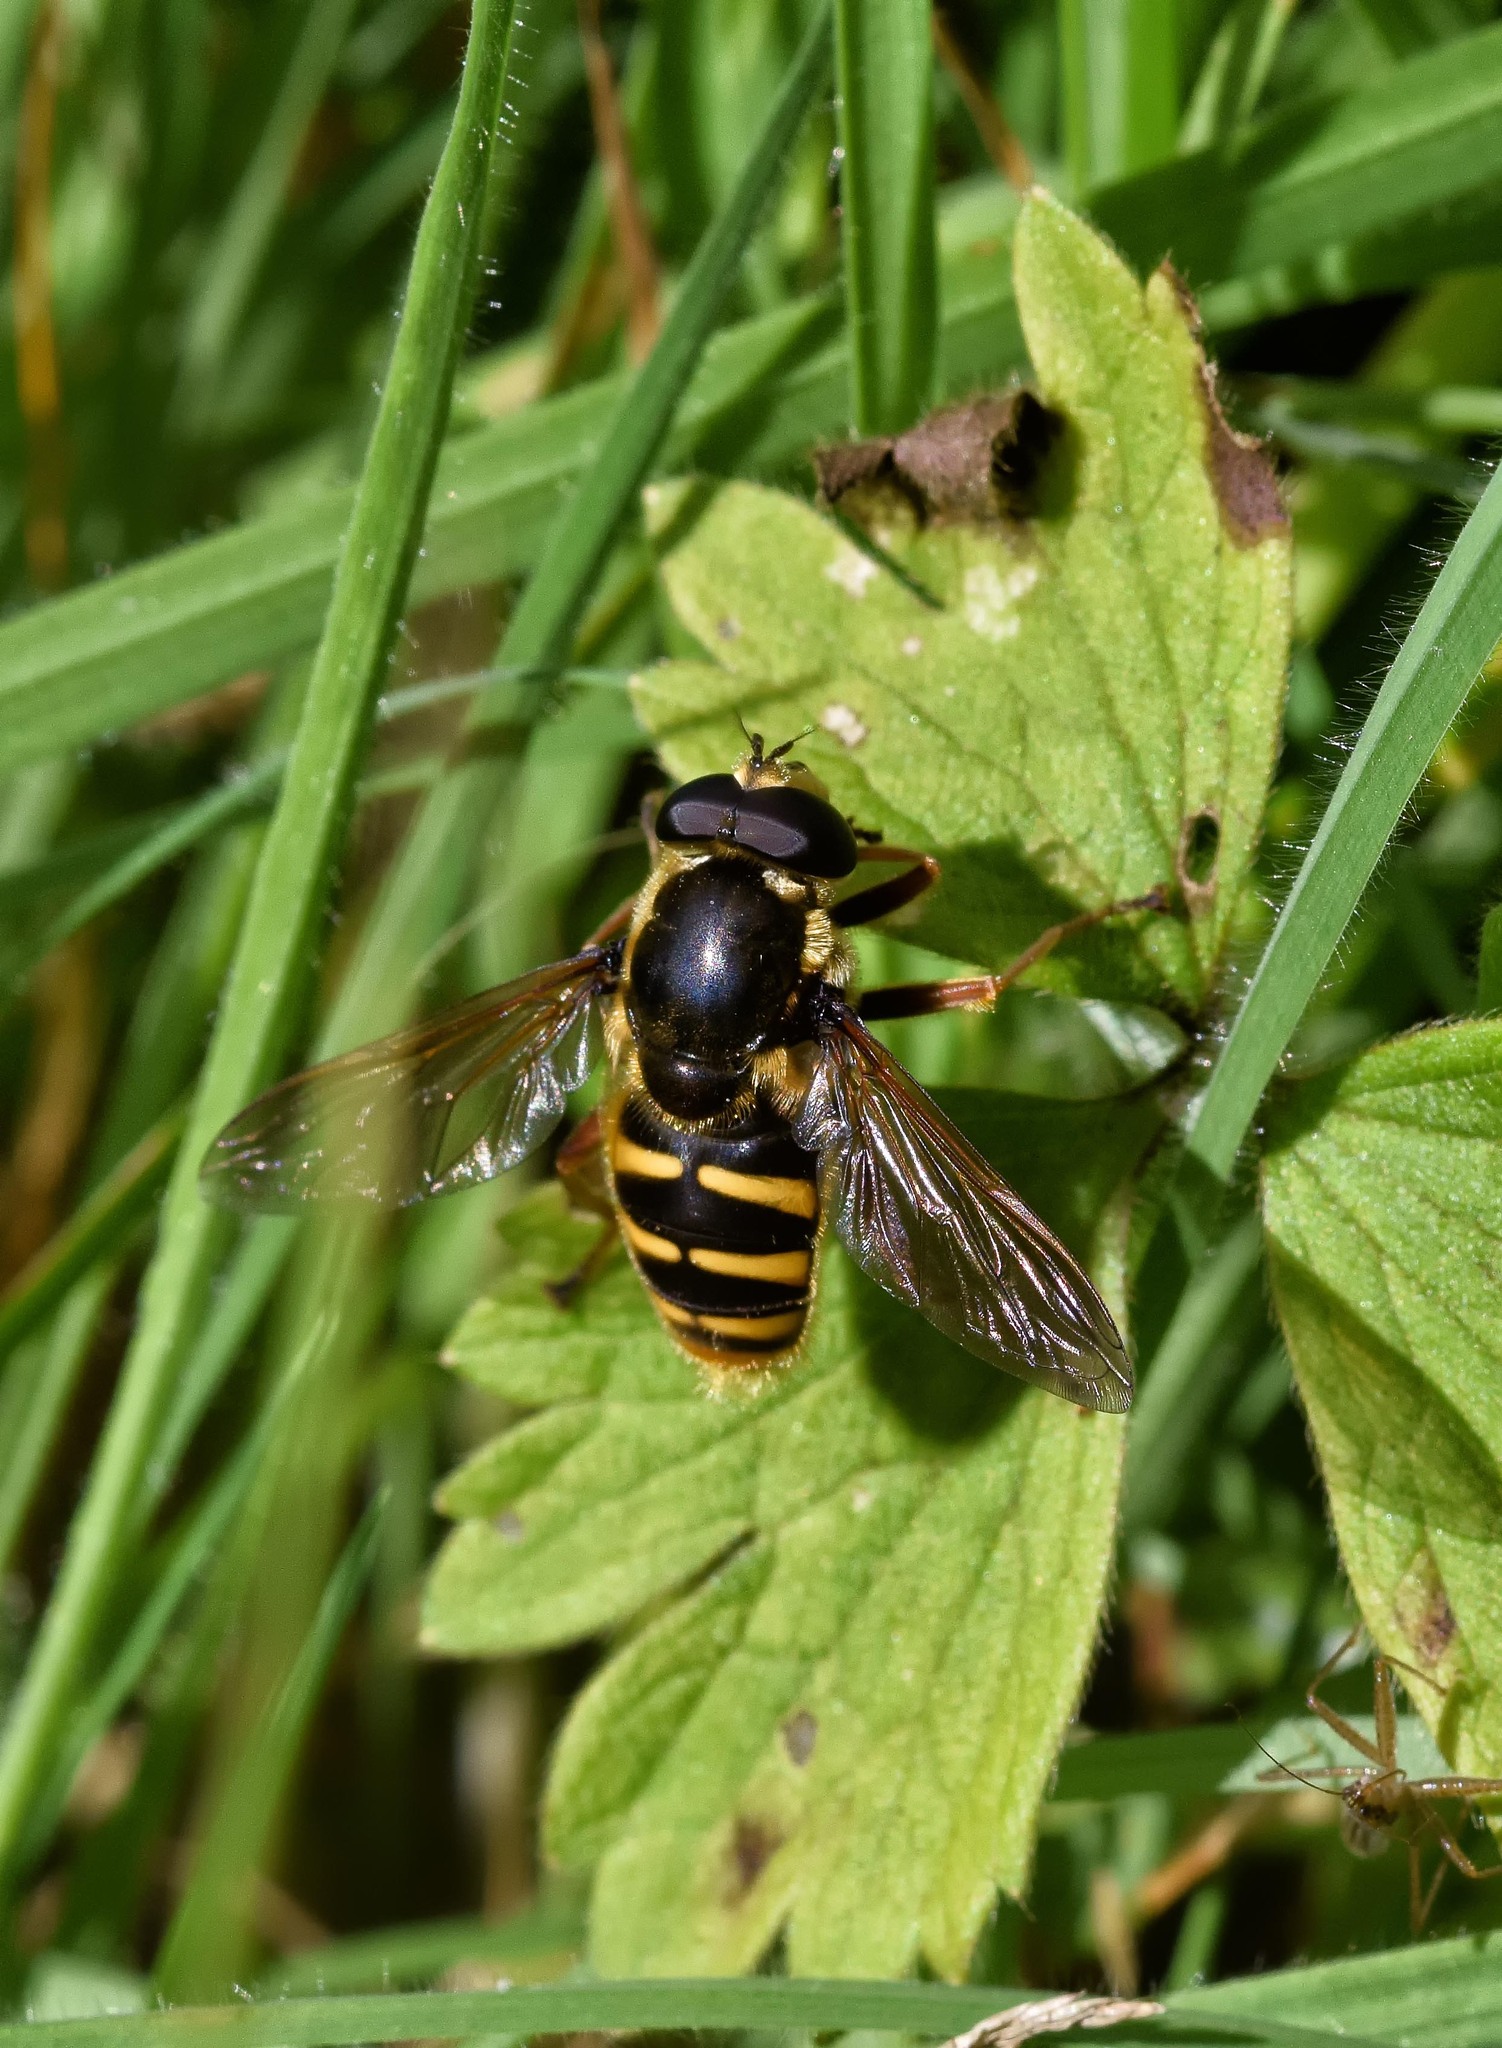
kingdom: Animalia
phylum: Arthropoda
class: Insecta
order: Diptera
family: Syrphidae
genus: Sericomyia
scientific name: Sericomyia silentis
